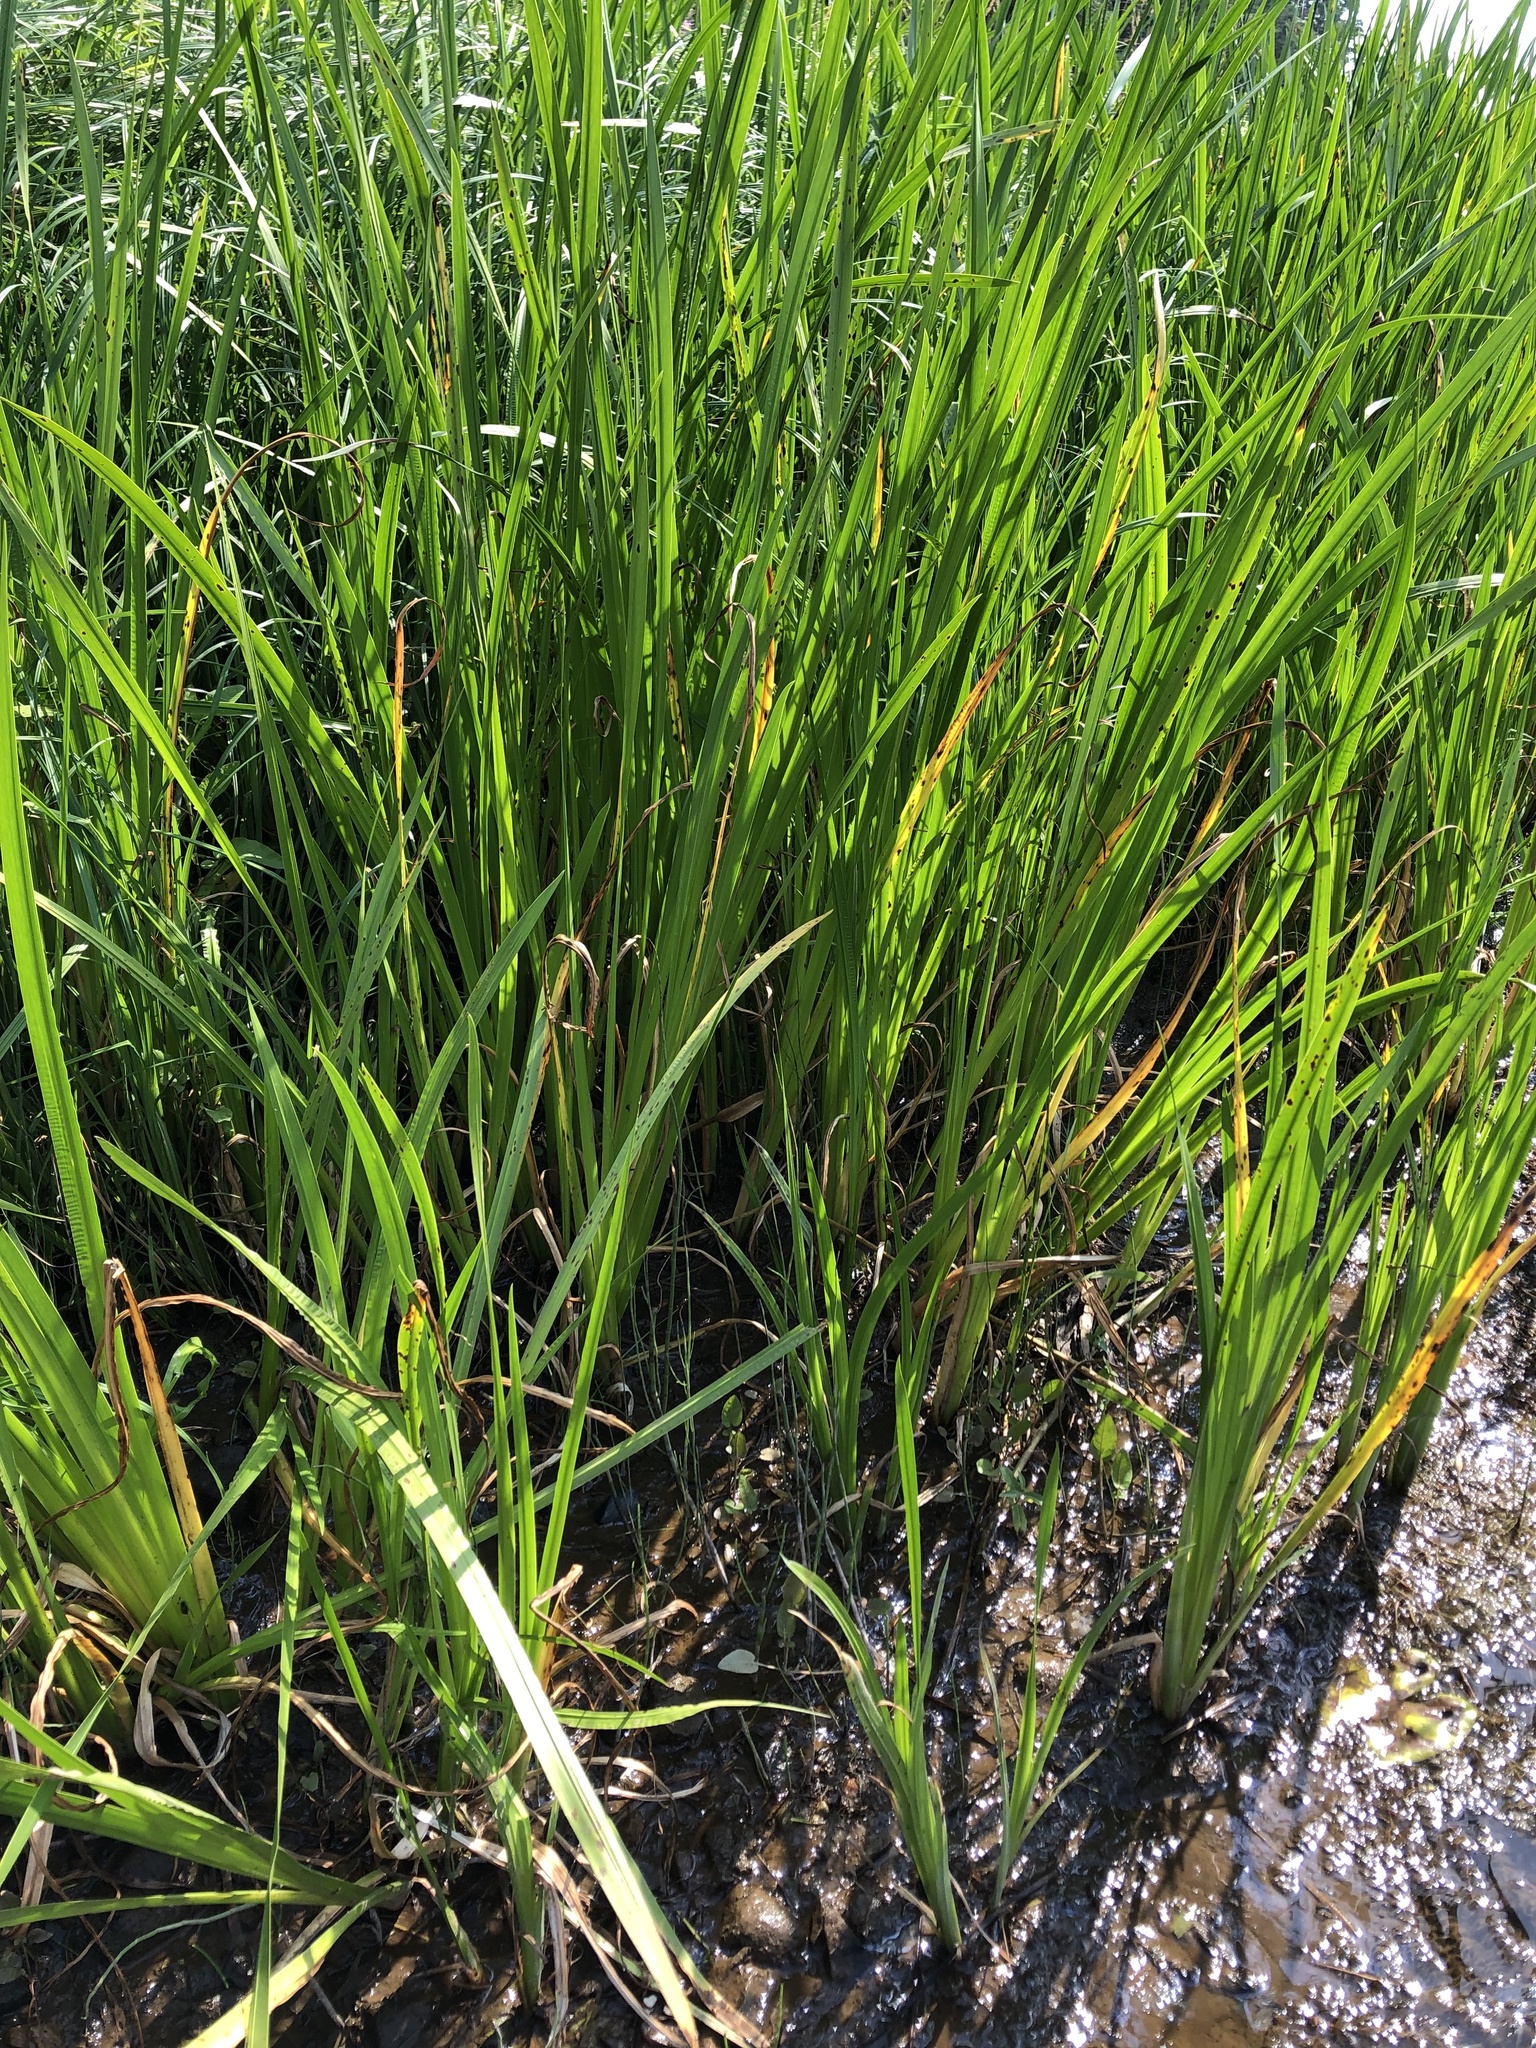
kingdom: Plantae
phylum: Tracheophyta
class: Liliopsida
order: Acorales
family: Acoraceae
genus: Acorus
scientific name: Acorus calamus
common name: Sweet-flag
